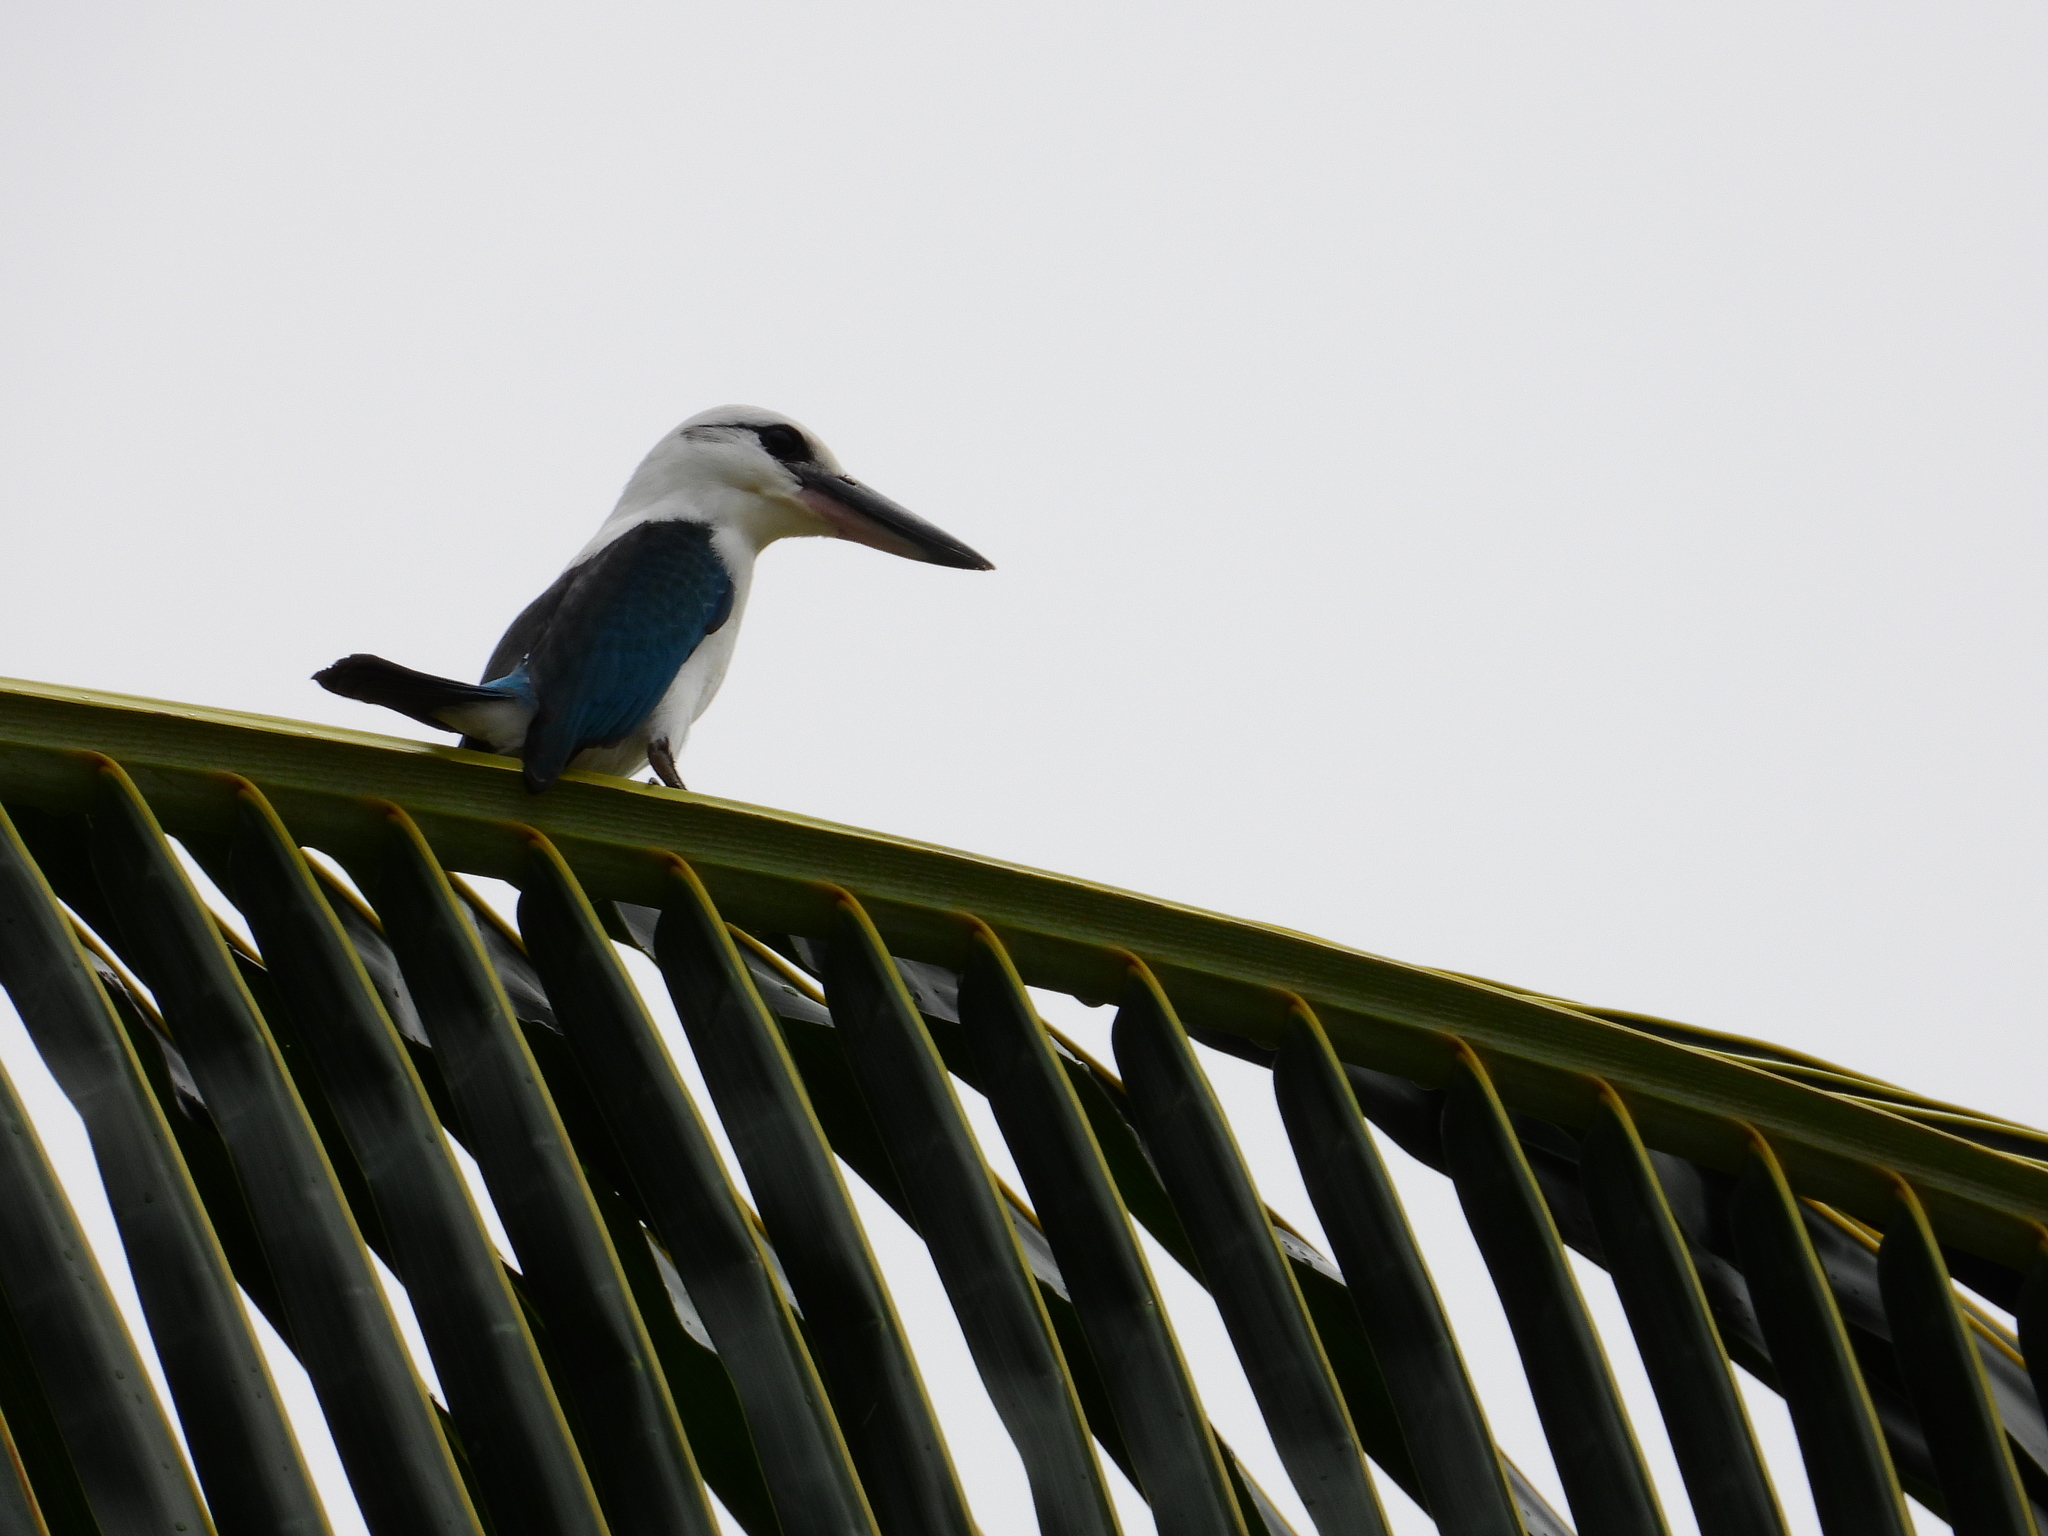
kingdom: Animalia
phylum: Chordata
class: Aves
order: Coraciiformes
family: Alcedinidae
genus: Todiramphus
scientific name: Todiramphus saurophagus
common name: Beach kingfisher
